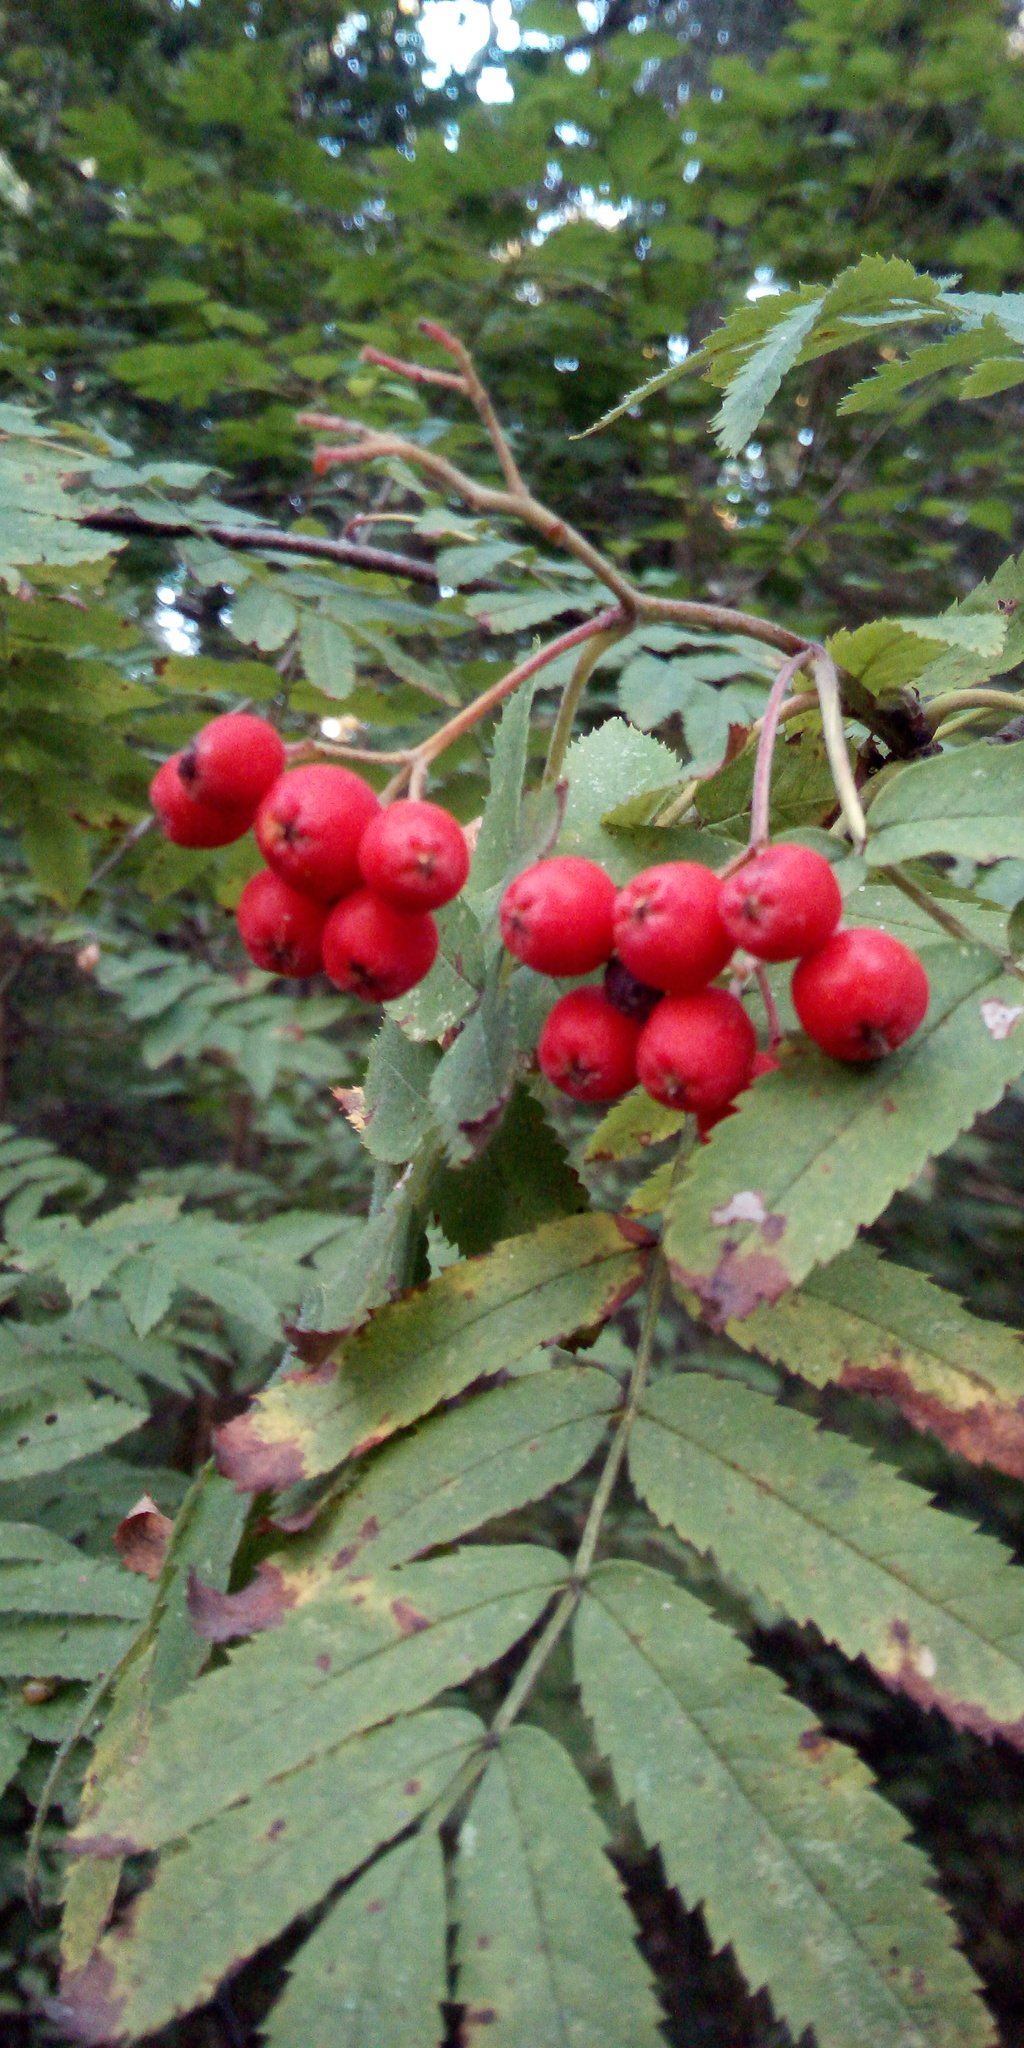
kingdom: Plantae
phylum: Tracheophyta
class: Magnoliopsida
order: Rosales
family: Rosaceae
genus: Sorbus
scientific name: Sorbus aucuparia
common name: Rowan
